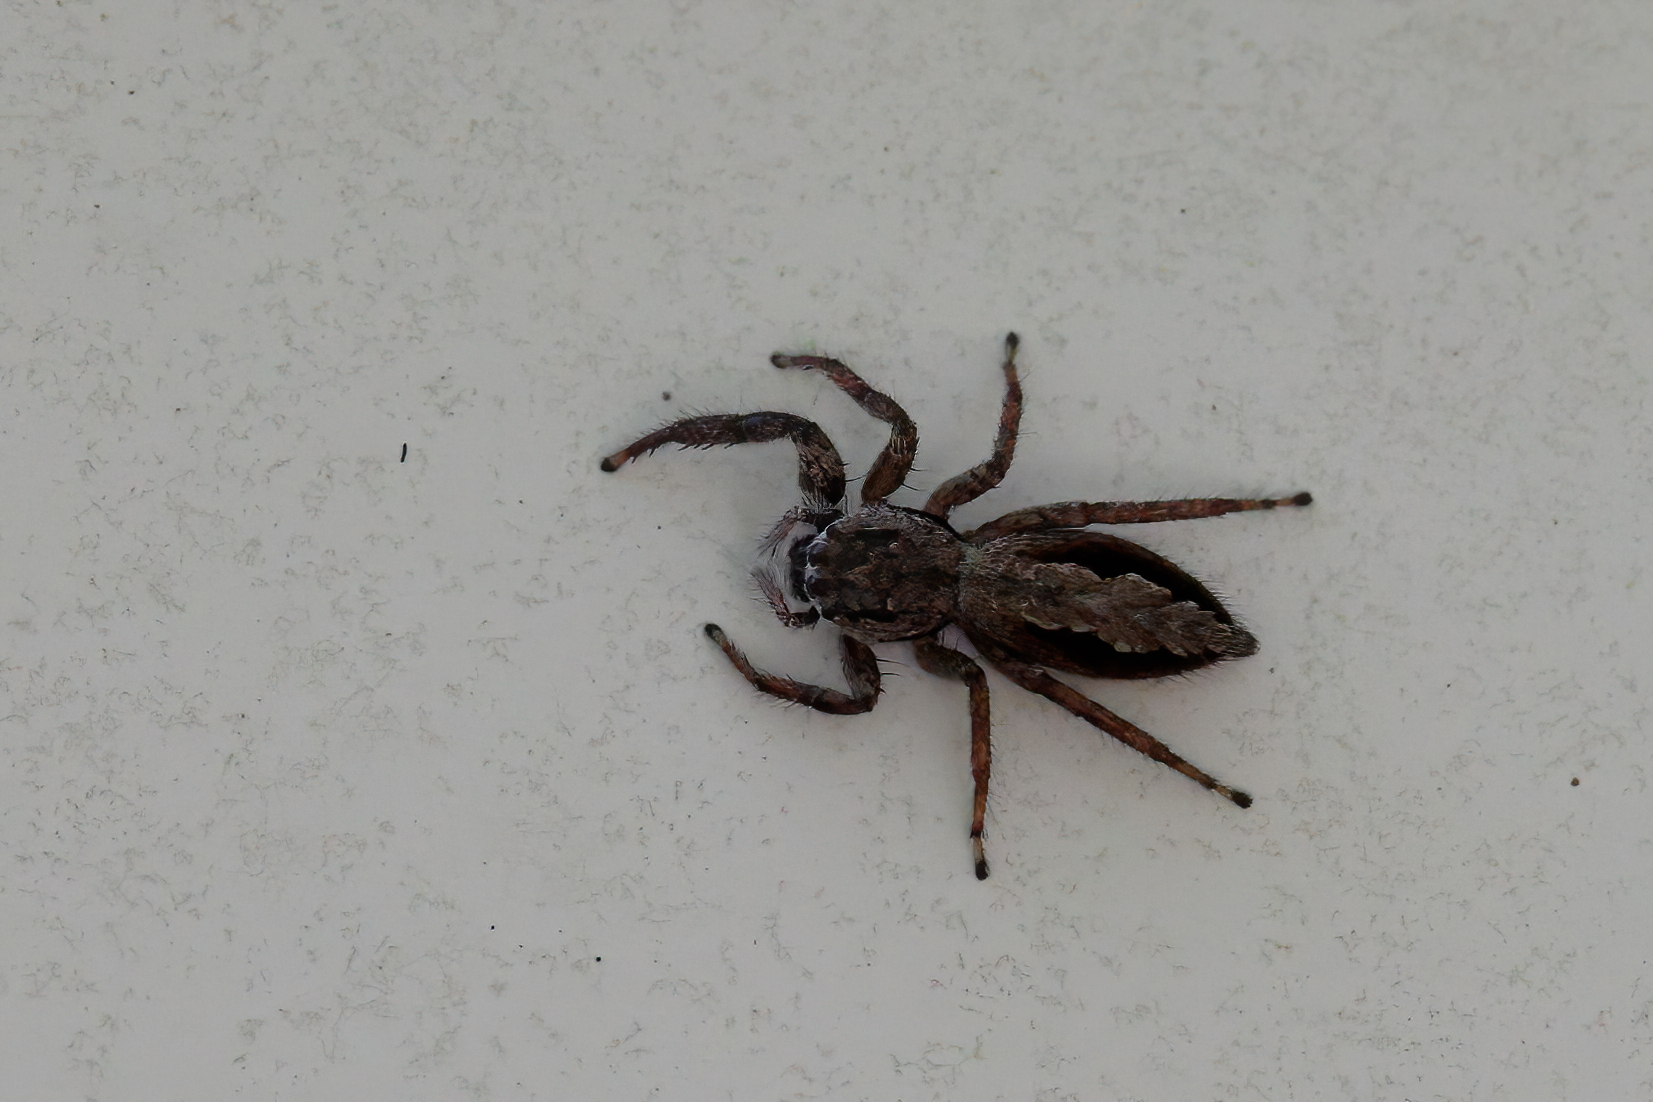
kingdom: Animalia
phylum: Arthropoda
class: Arachnida
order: Araneae
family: Salticidae
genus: Platycryptus
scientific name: Platycryptus undatus
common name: Tan jumping spider
